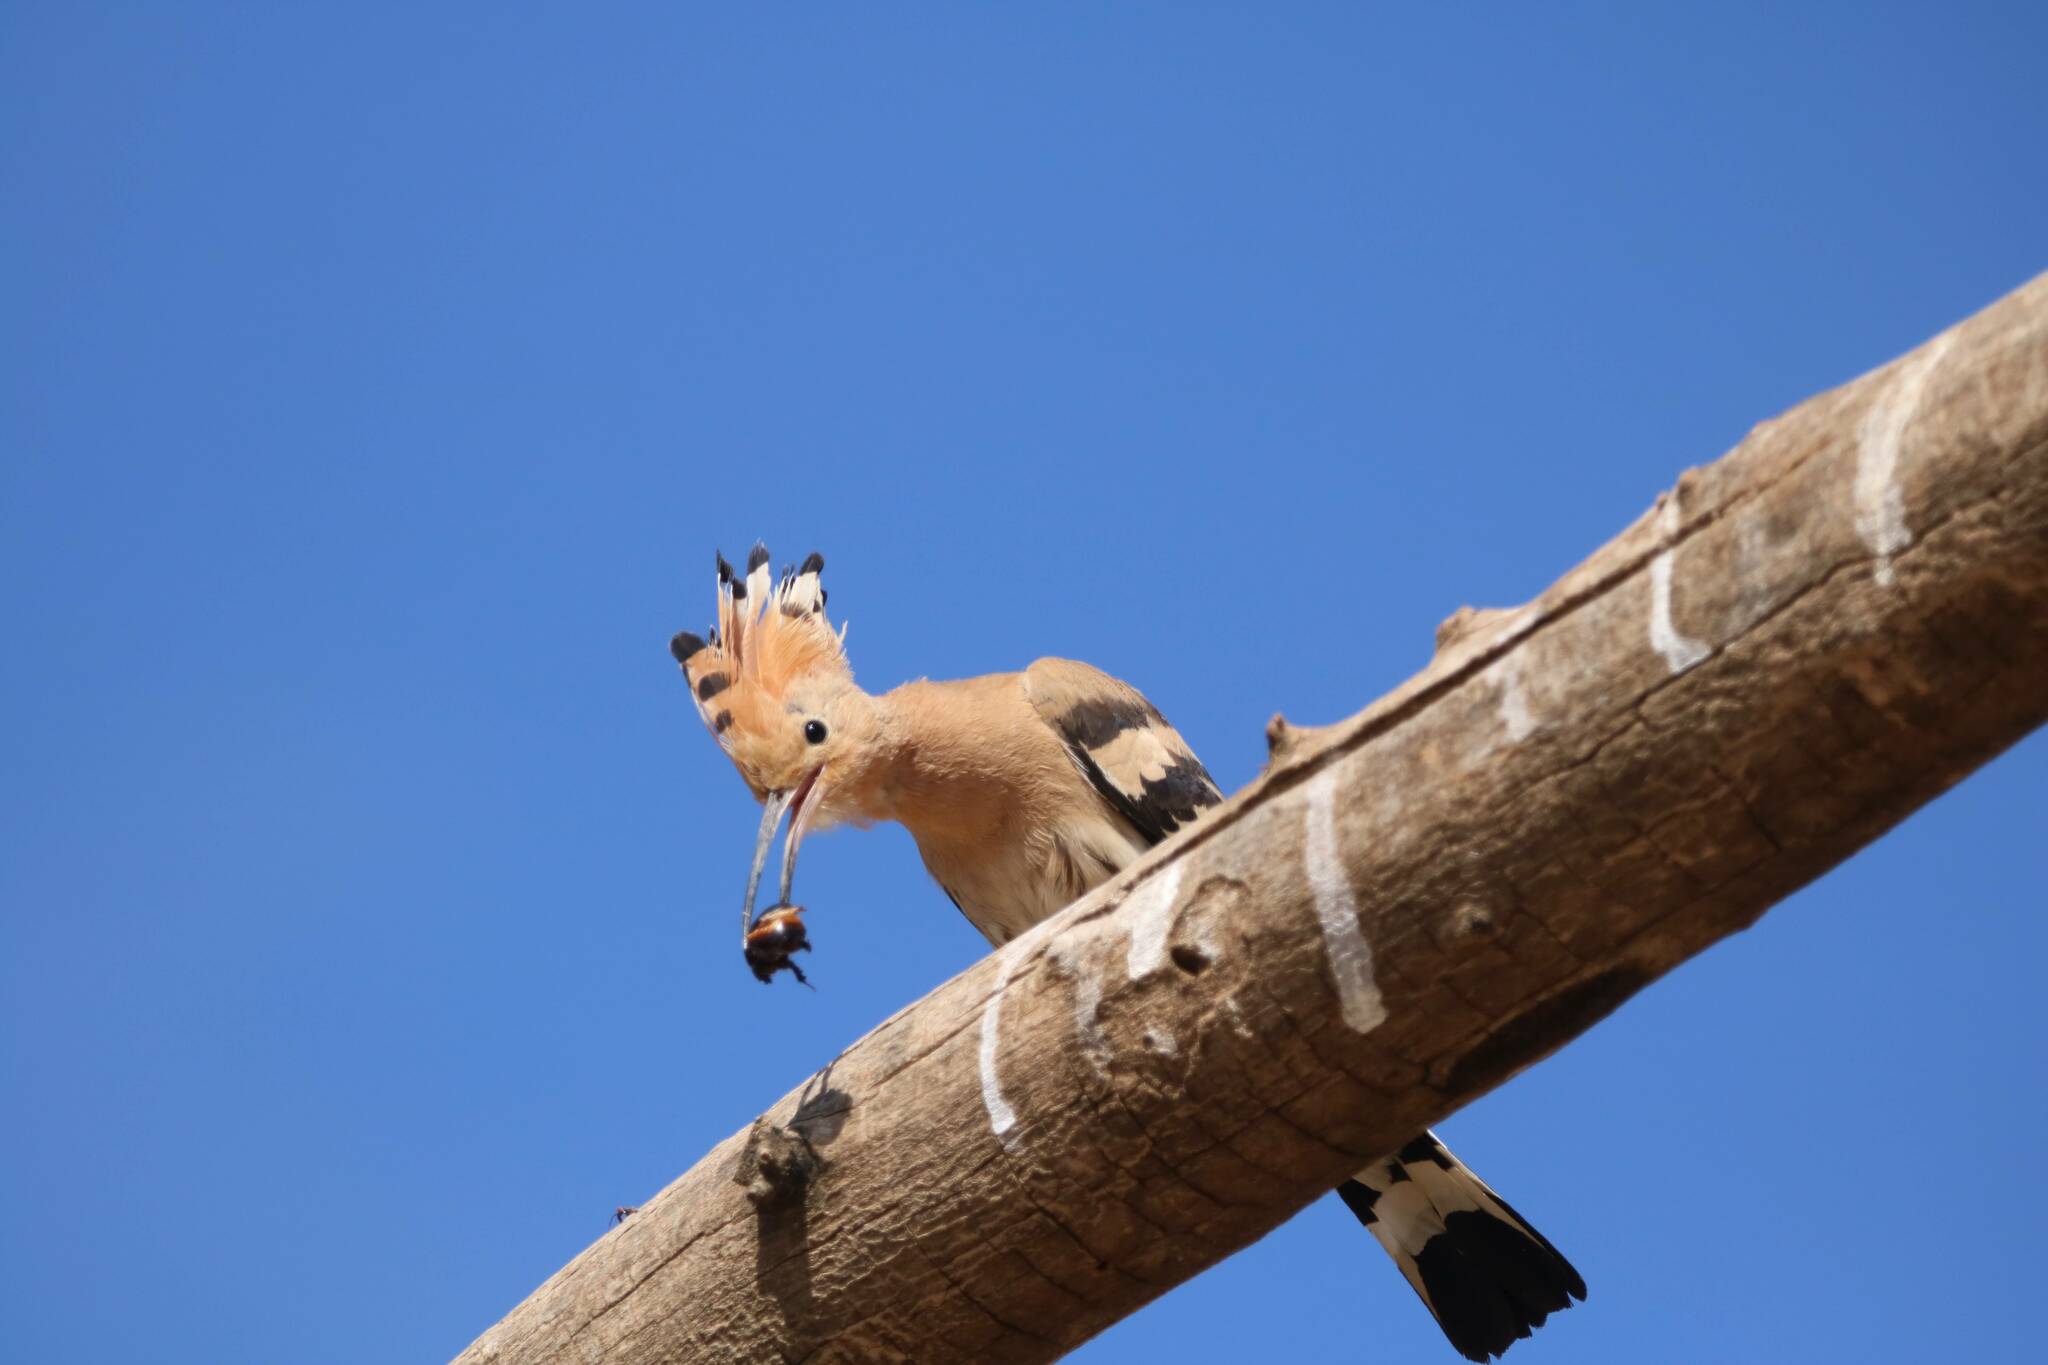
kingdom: Animalia
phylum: Chordata
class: Aves
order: Bucerotiformes
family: Upupidae
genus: Upupa
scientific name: Upupa epops
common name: Eurasian hoopoe
